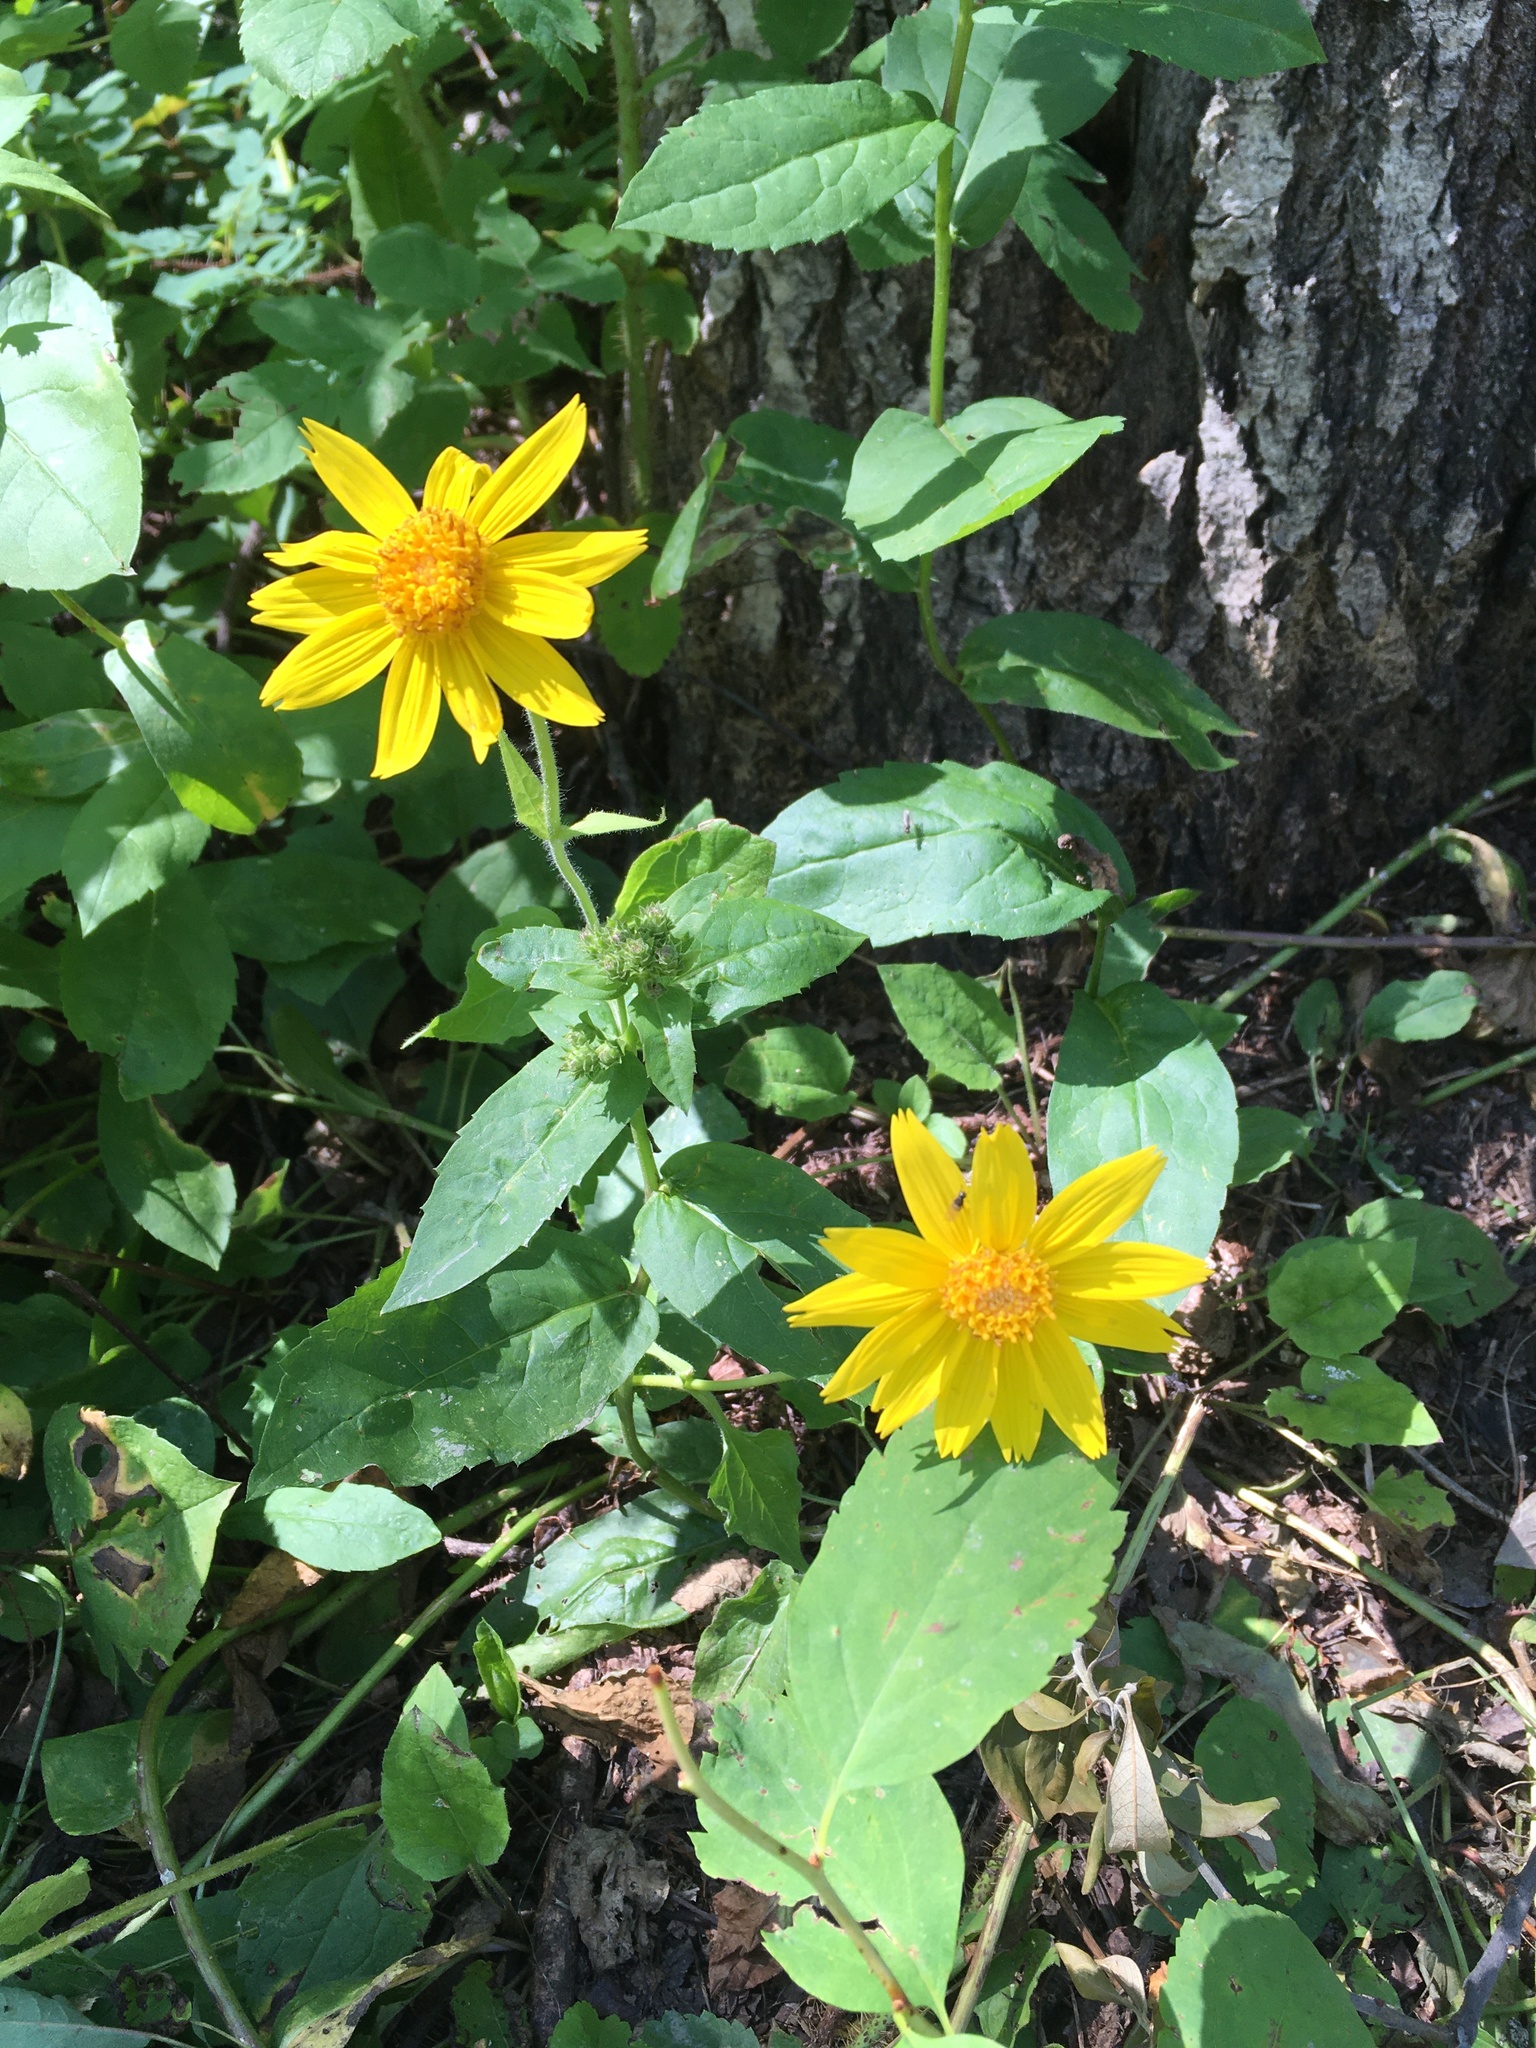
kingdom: Plantae
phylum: Tracheophyta
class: Magnoliopsida
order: Asterales
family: Asteraceae
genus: Arnica
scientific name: Arnica cordifolia
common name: Heart-leaf arnica
